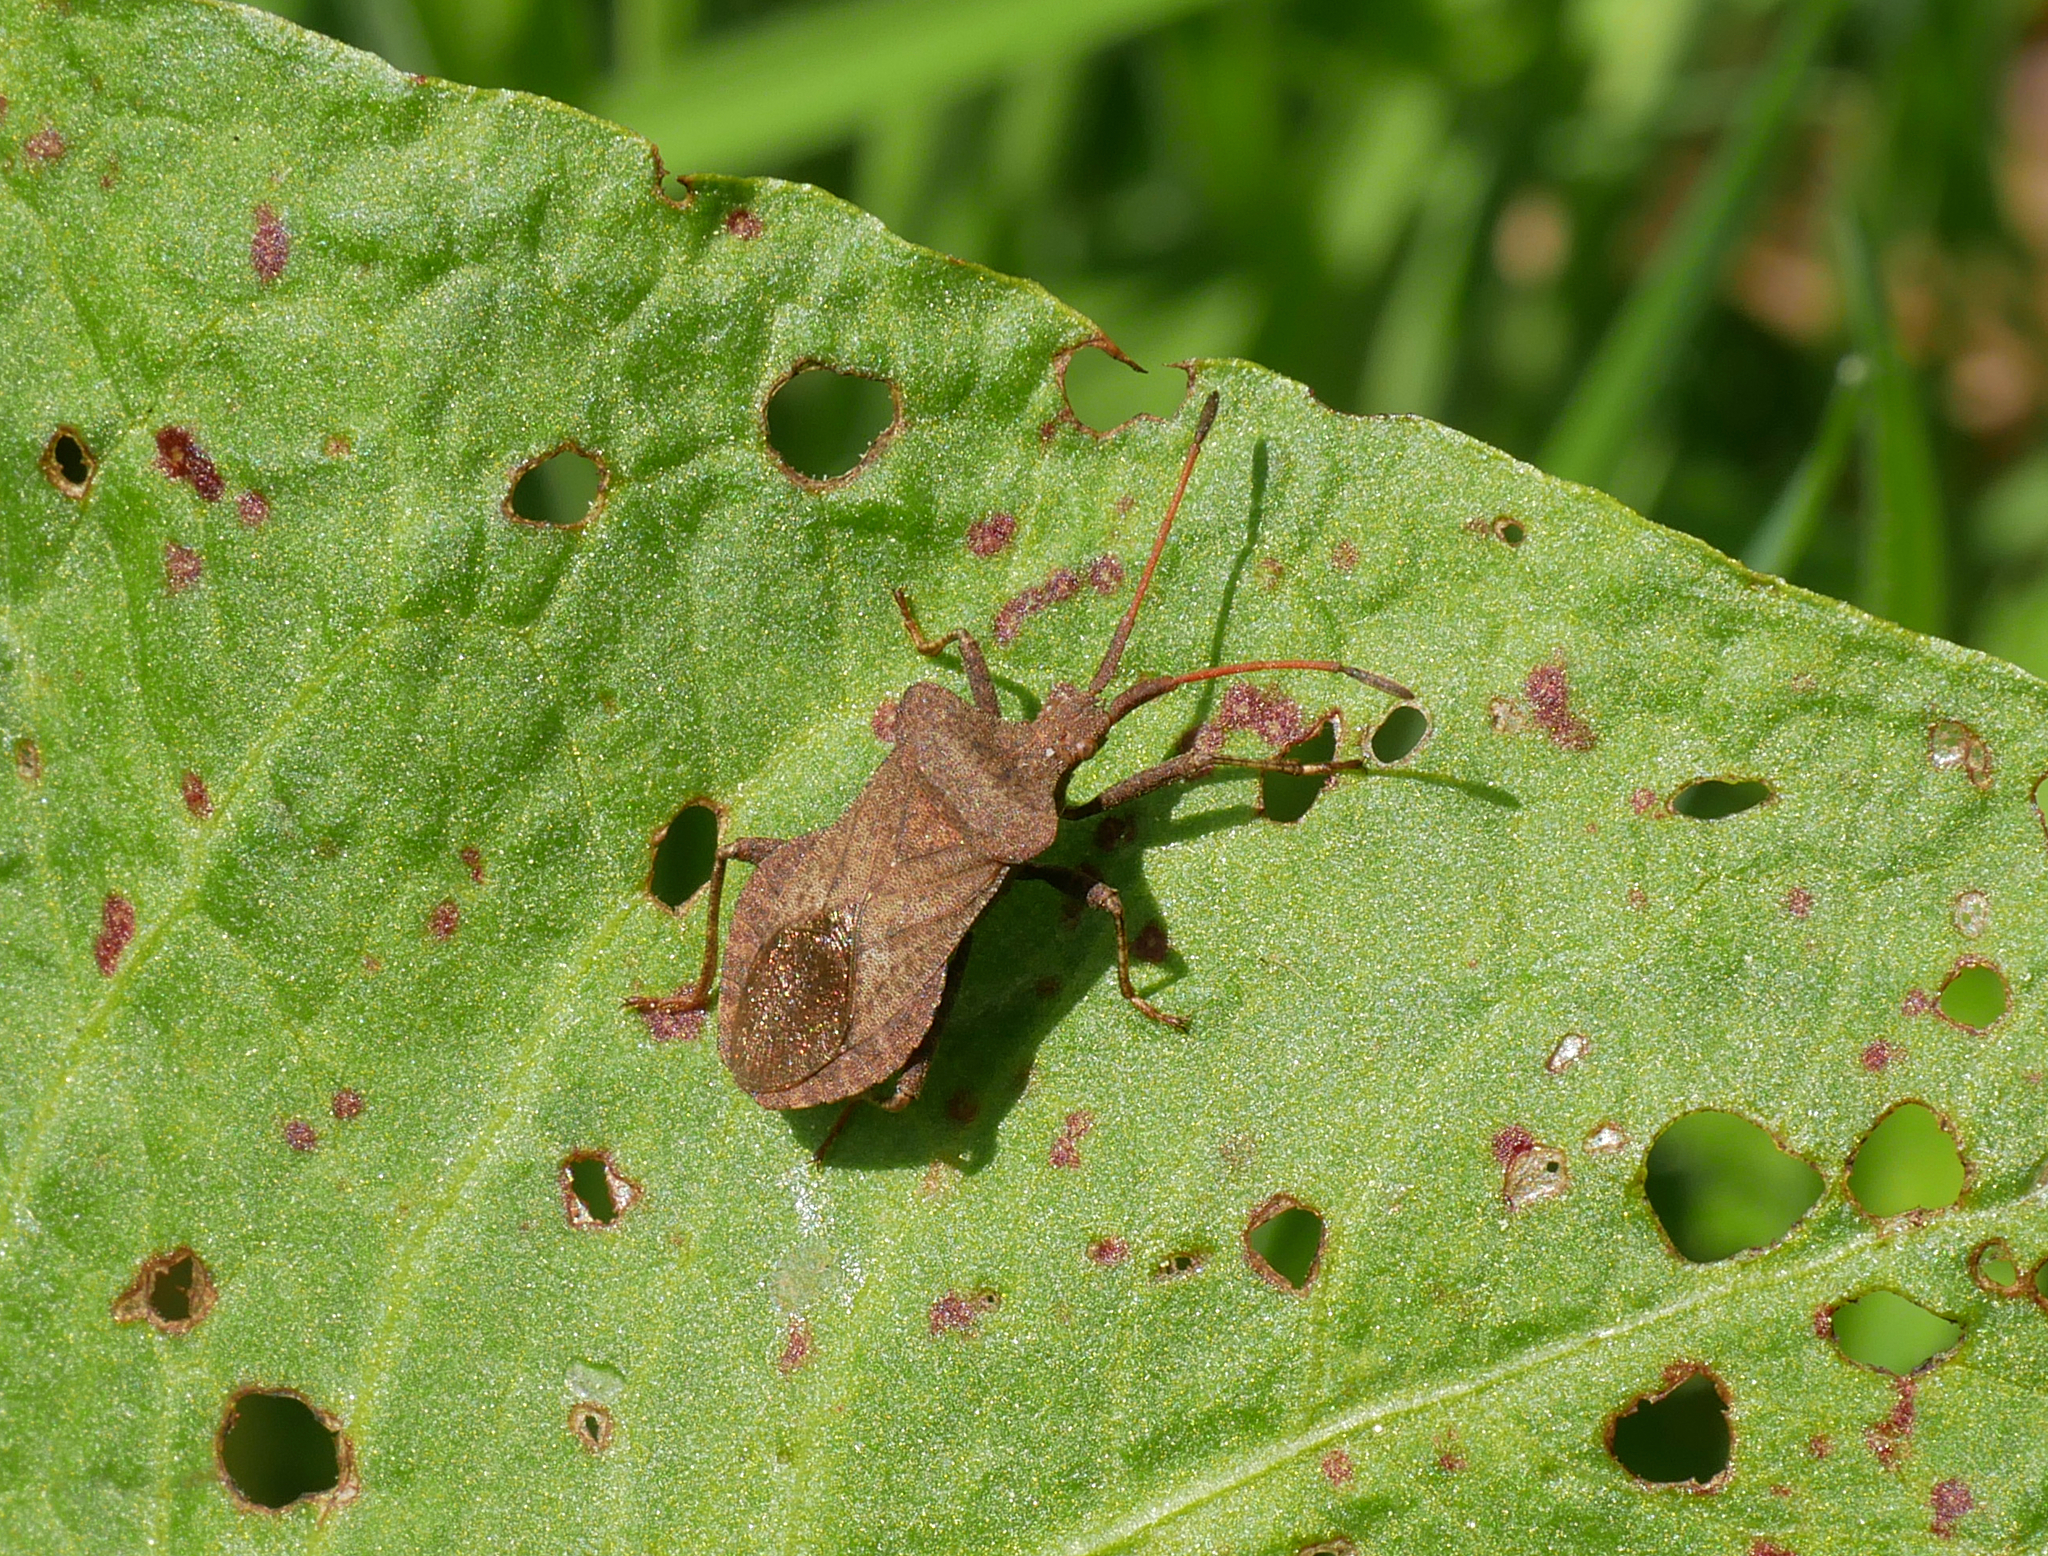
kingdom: Animalia
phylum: Arthropoda
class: Insecta
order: Hemiptera
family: Coreidae
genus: Coreus
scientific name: Coreus marginatus
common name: Dock bug
